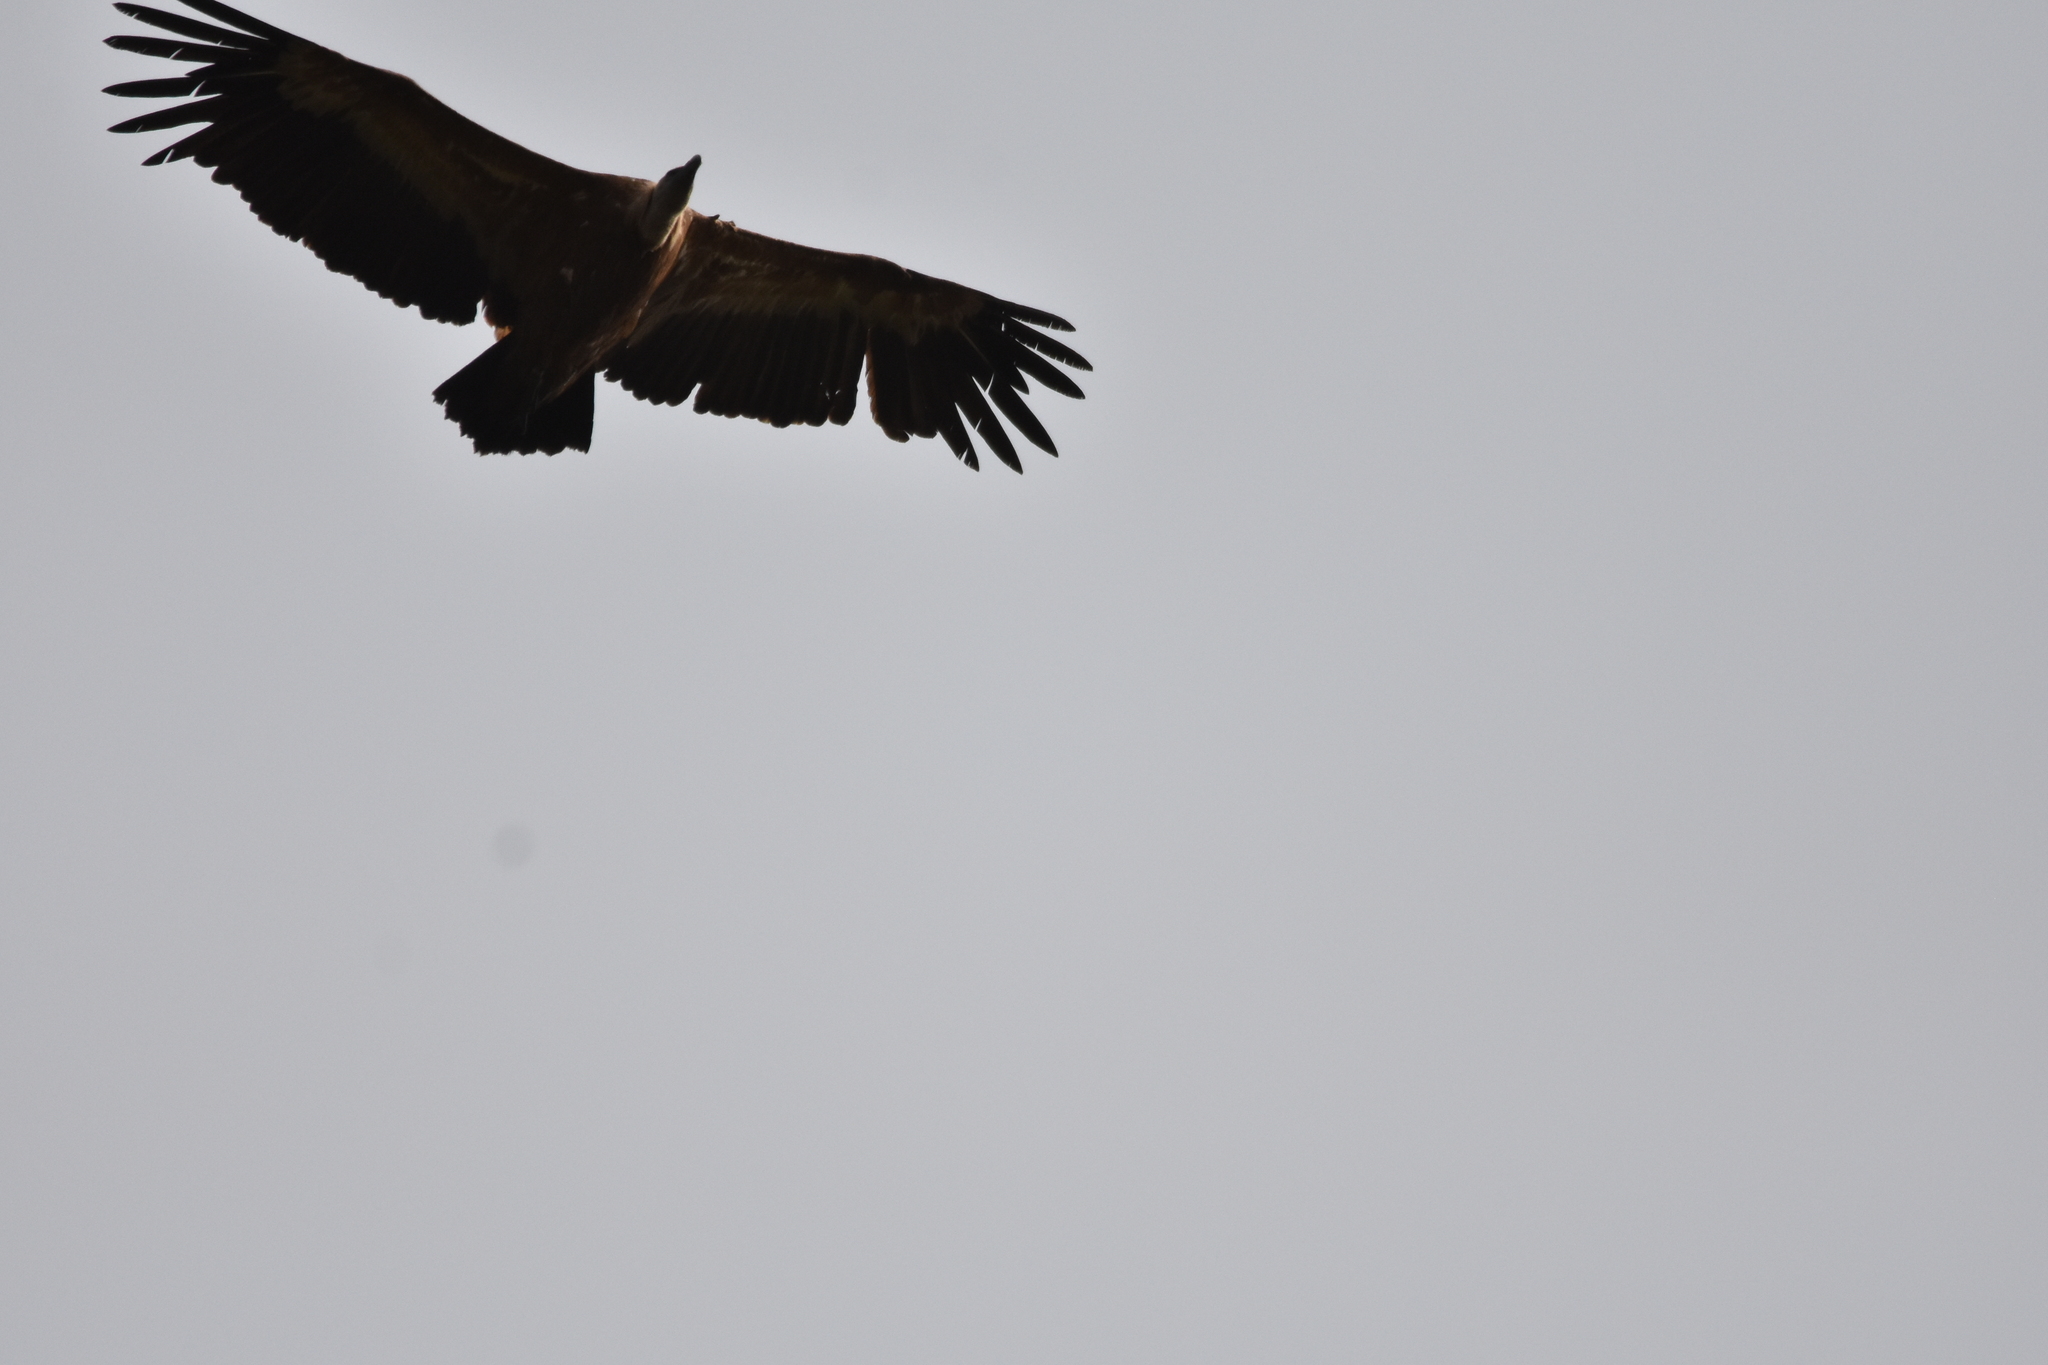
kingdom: Animalia
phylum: Chordata
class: Aves
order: Accipitriformes
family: Accipitridae
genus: Gyps
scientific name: Gyps fulvus
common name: Griffon vulture
